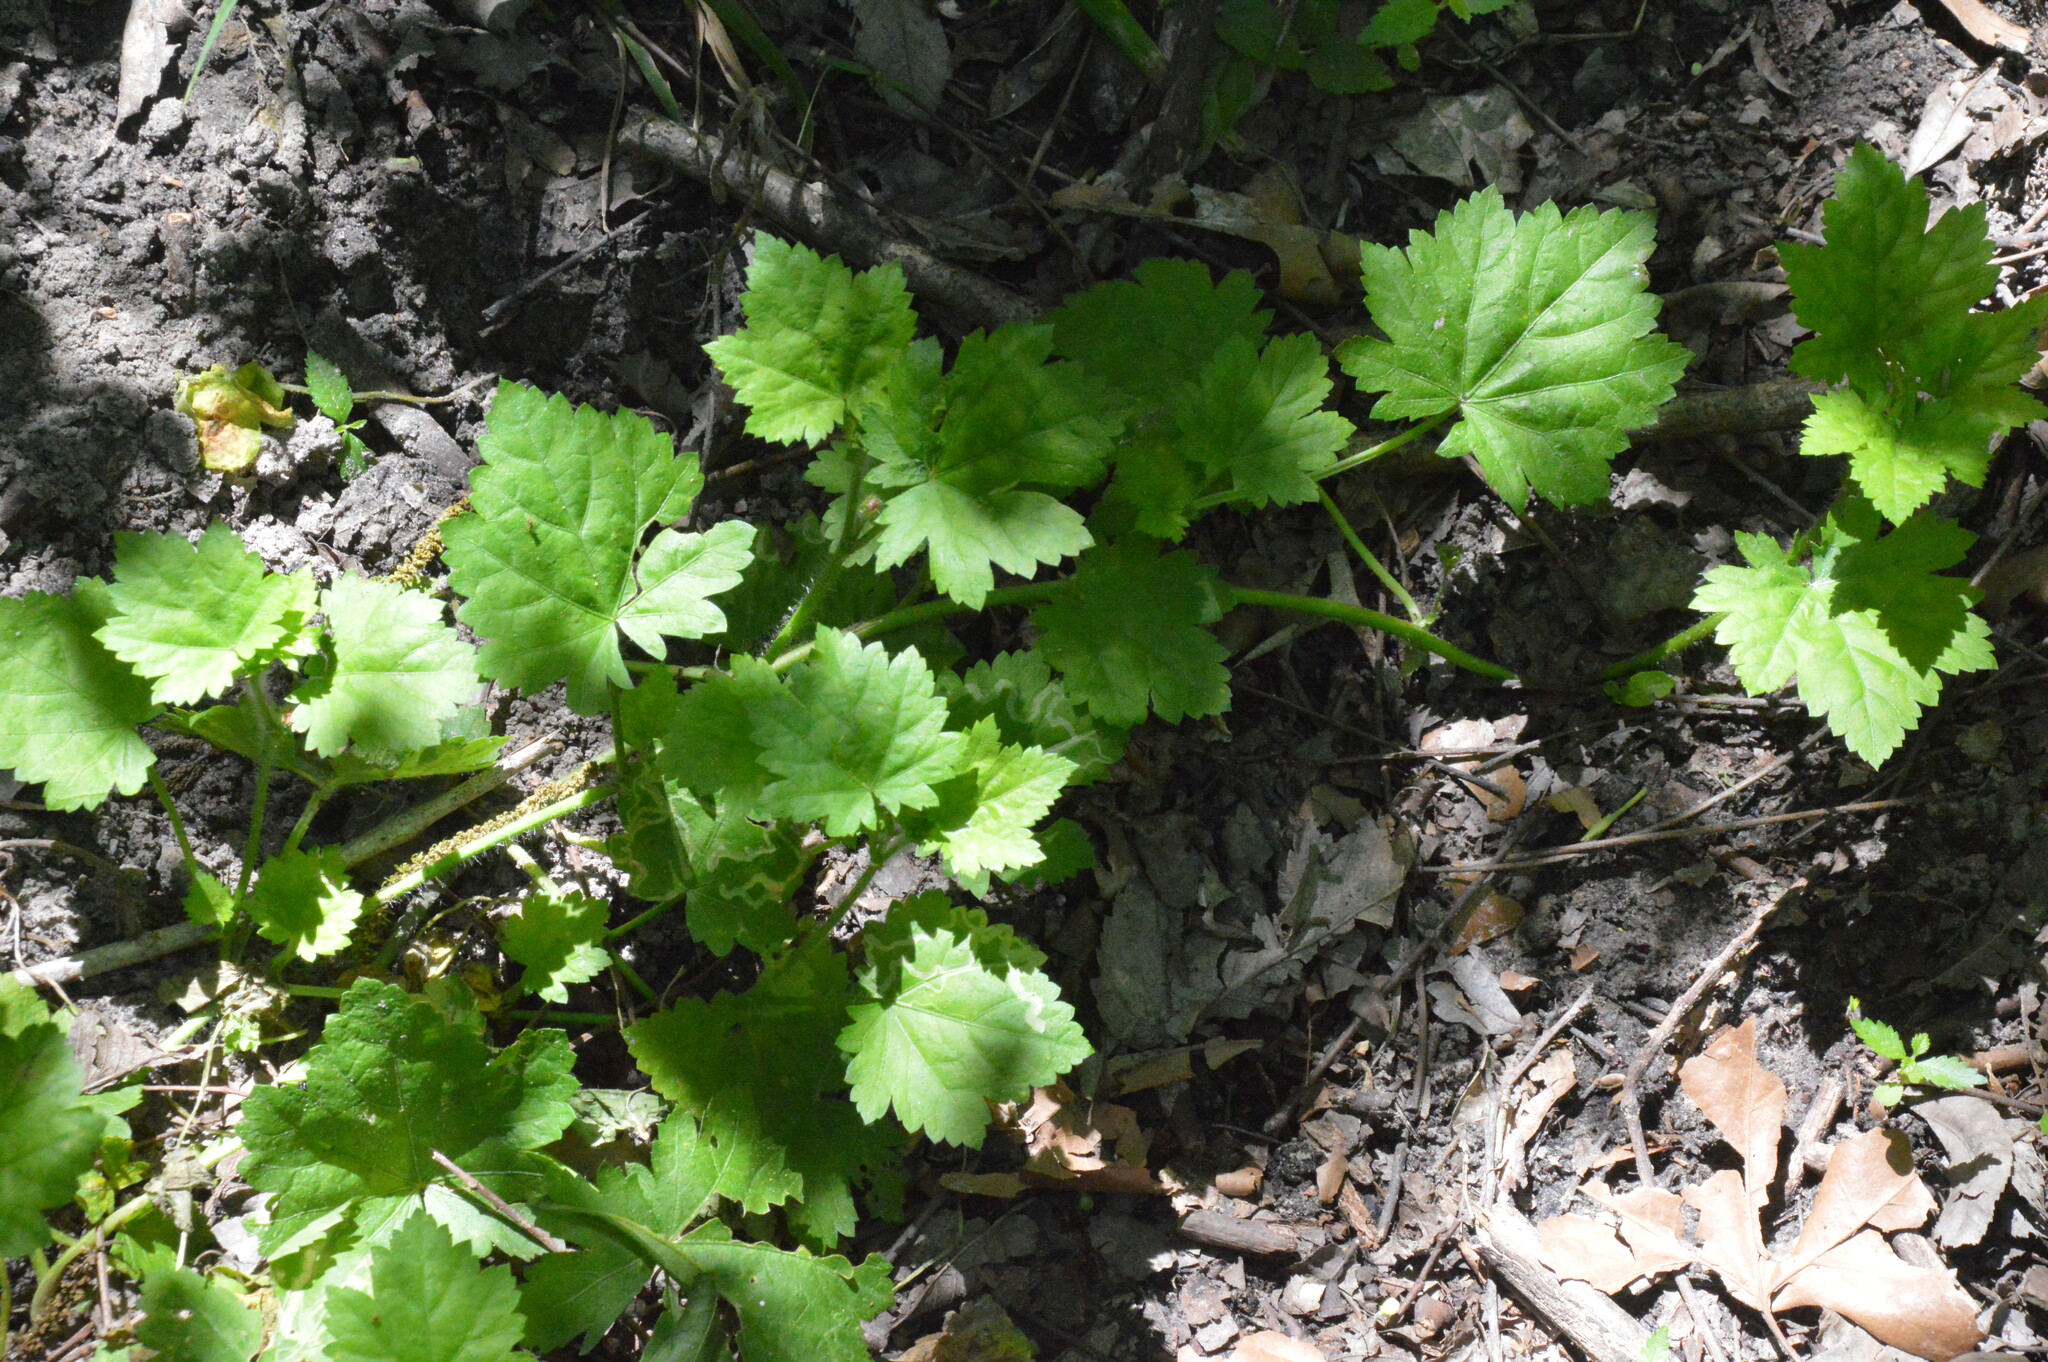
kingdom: Plantae
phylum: Tracheophyta
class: Magnoliopsida
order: Malvales
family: Malvaceae
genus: Modiola
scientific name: Modiola caroliniana
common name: Carolina bristlemallow
